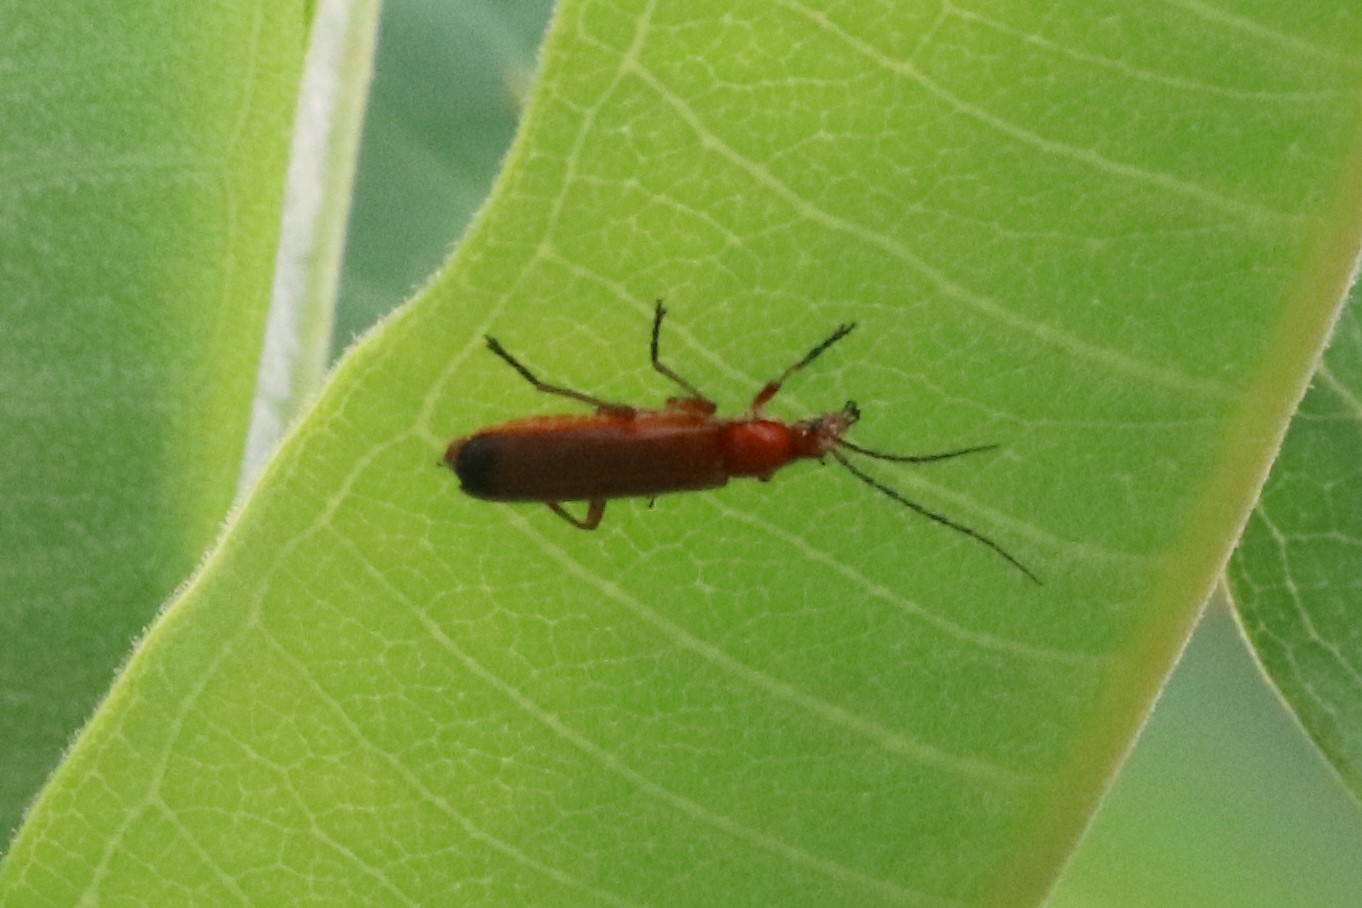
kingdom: Animalia
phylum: Arthropoda
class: Insecta
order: Coleoptera
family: Cantharidae
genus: Rhagonycha
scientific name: Rhagonycha fulva
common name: Common red soldier beetle
